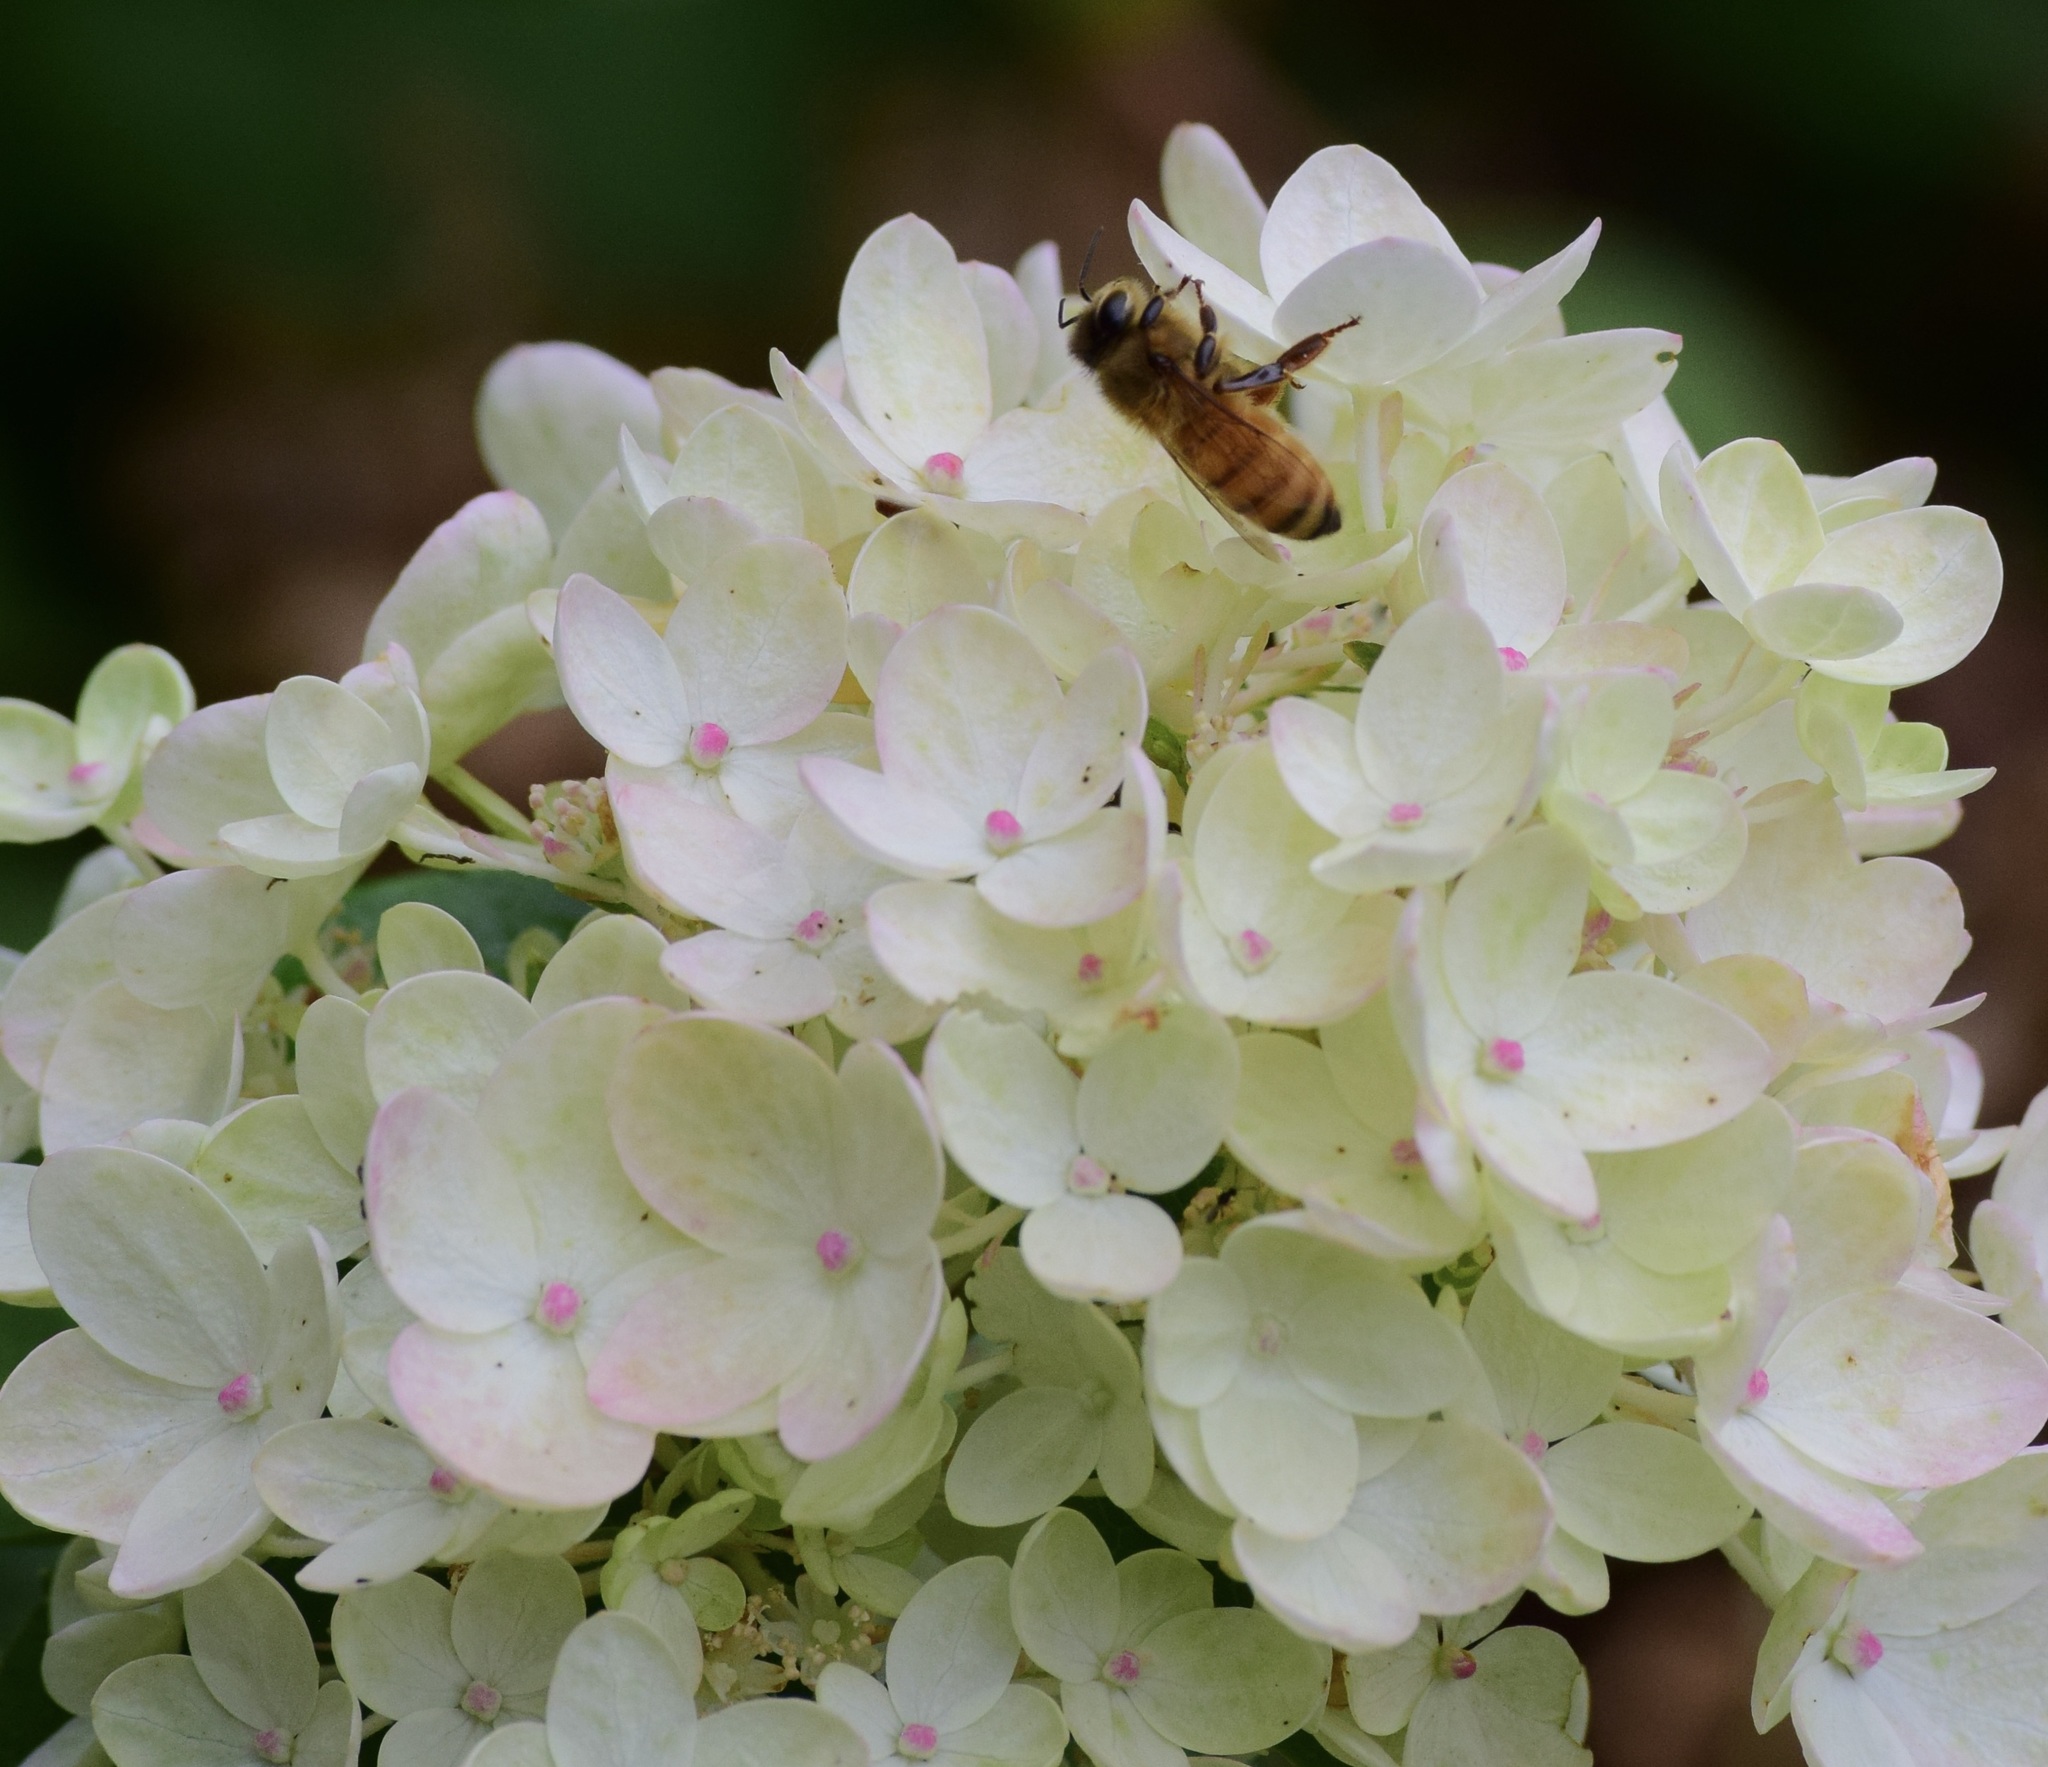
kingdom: Animalia
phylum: Arthropoda
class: Insecta
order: Hymenoptera
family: Apidae
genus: Apis
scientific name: Apis mellifera
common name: Honey bee
